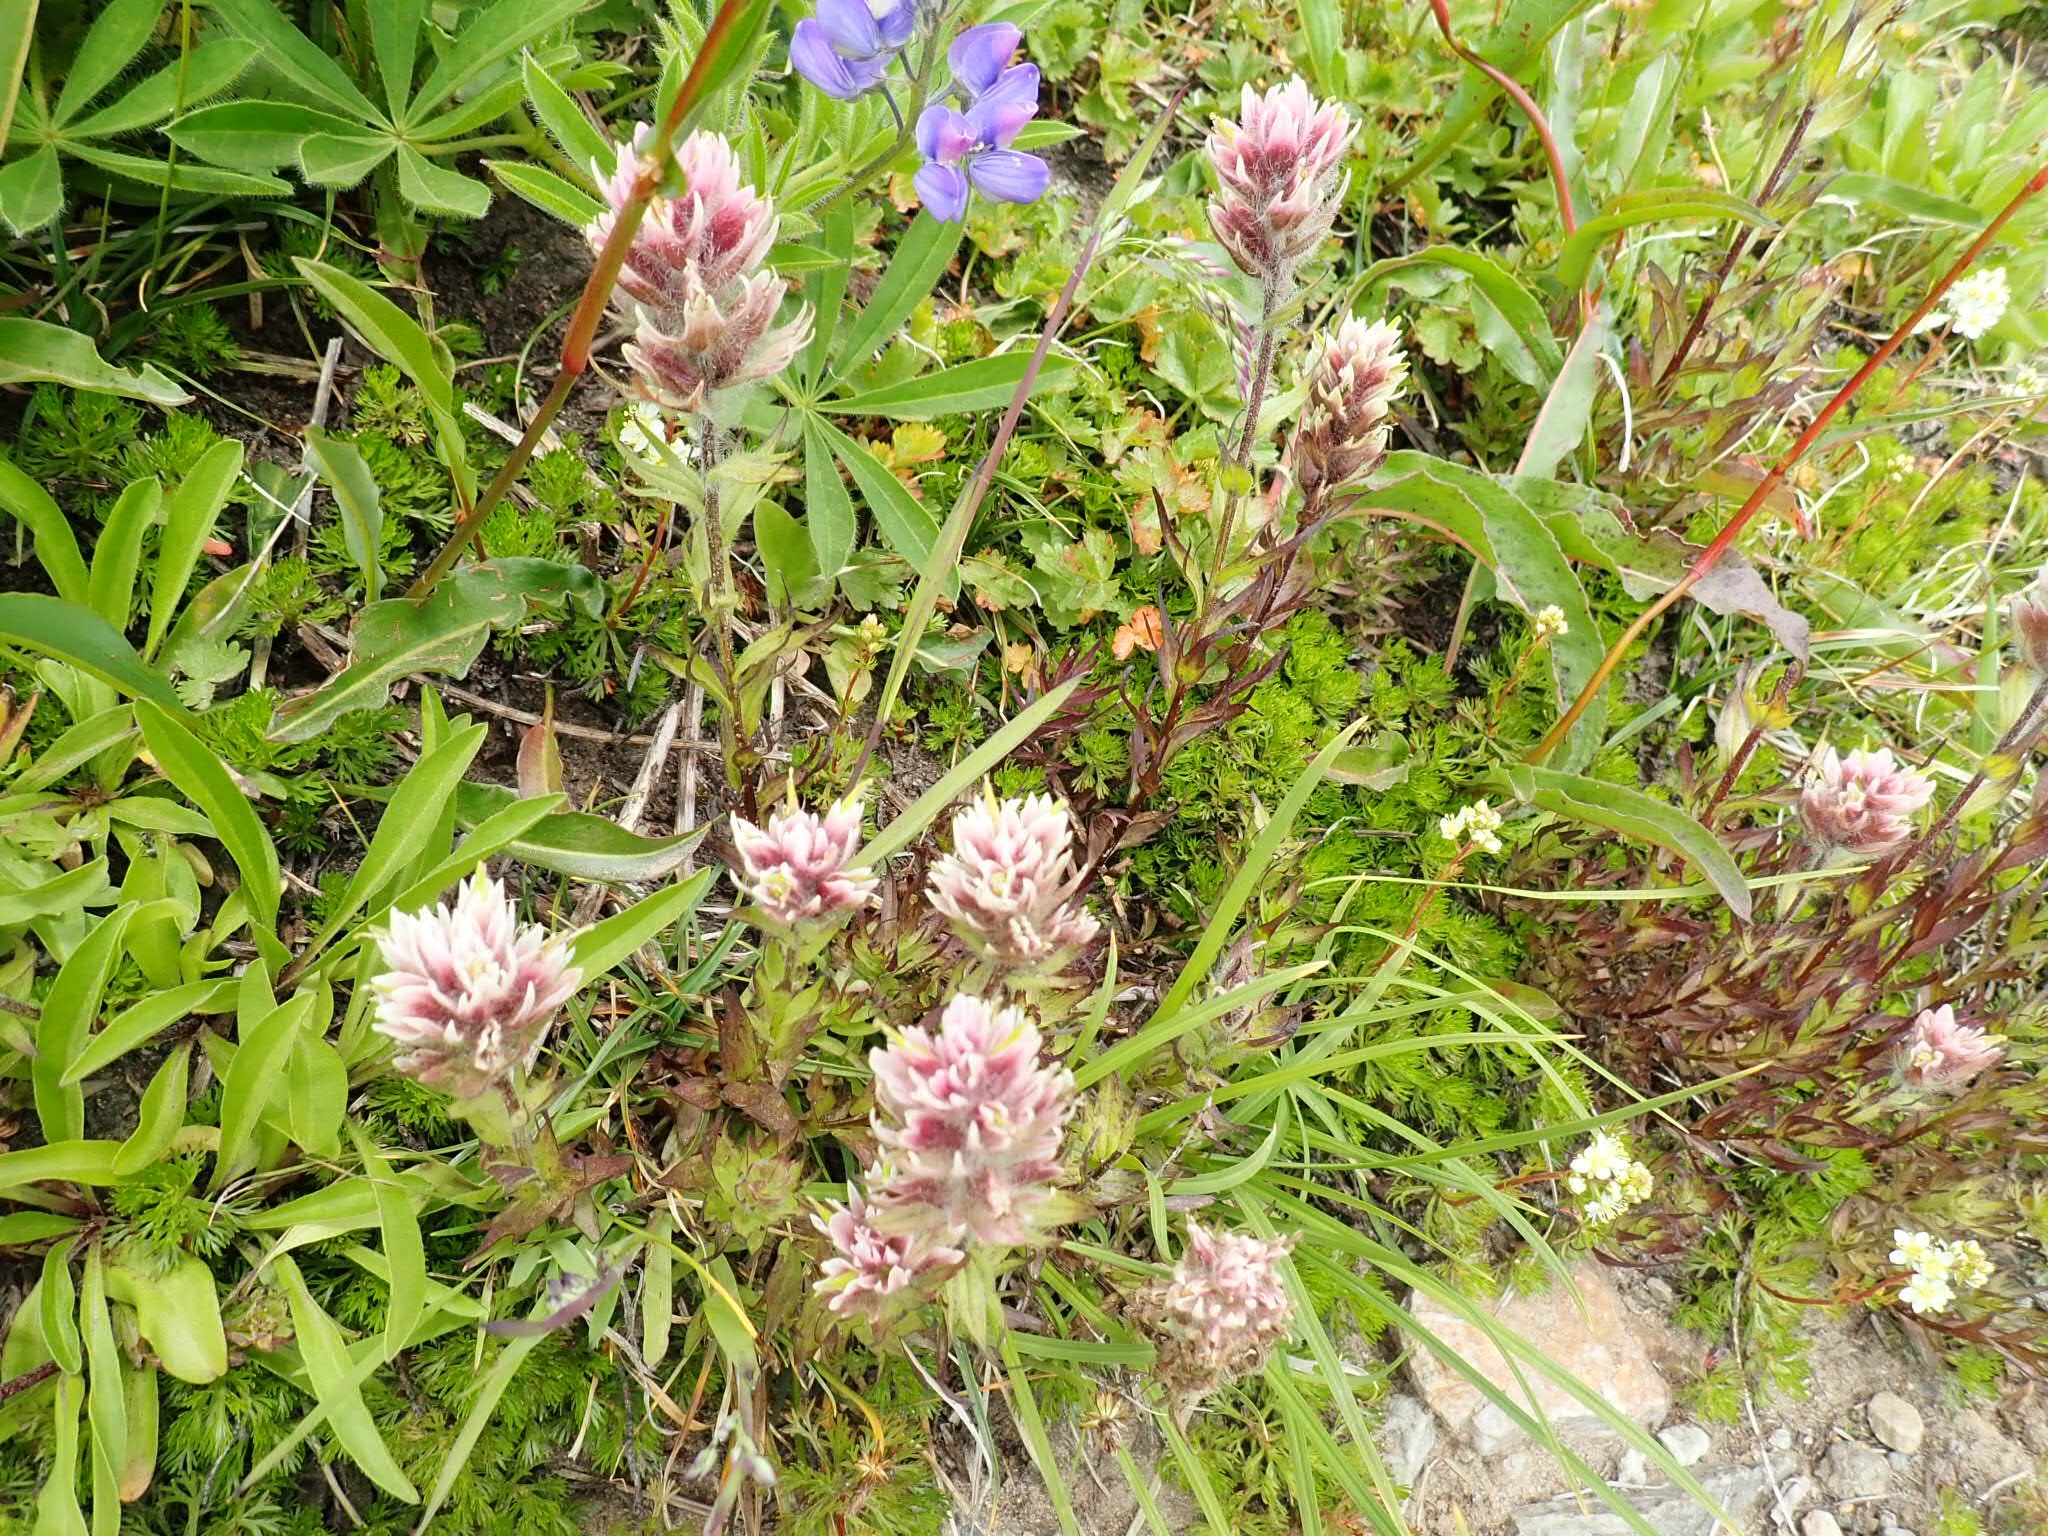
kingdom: Plantae
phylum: Tracheophyta
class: Magnoliopsida
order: Lamiales
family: Orobanchaceae
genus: Castilleja
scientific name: Castilleja parviflora
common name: Mountain paintbrush
